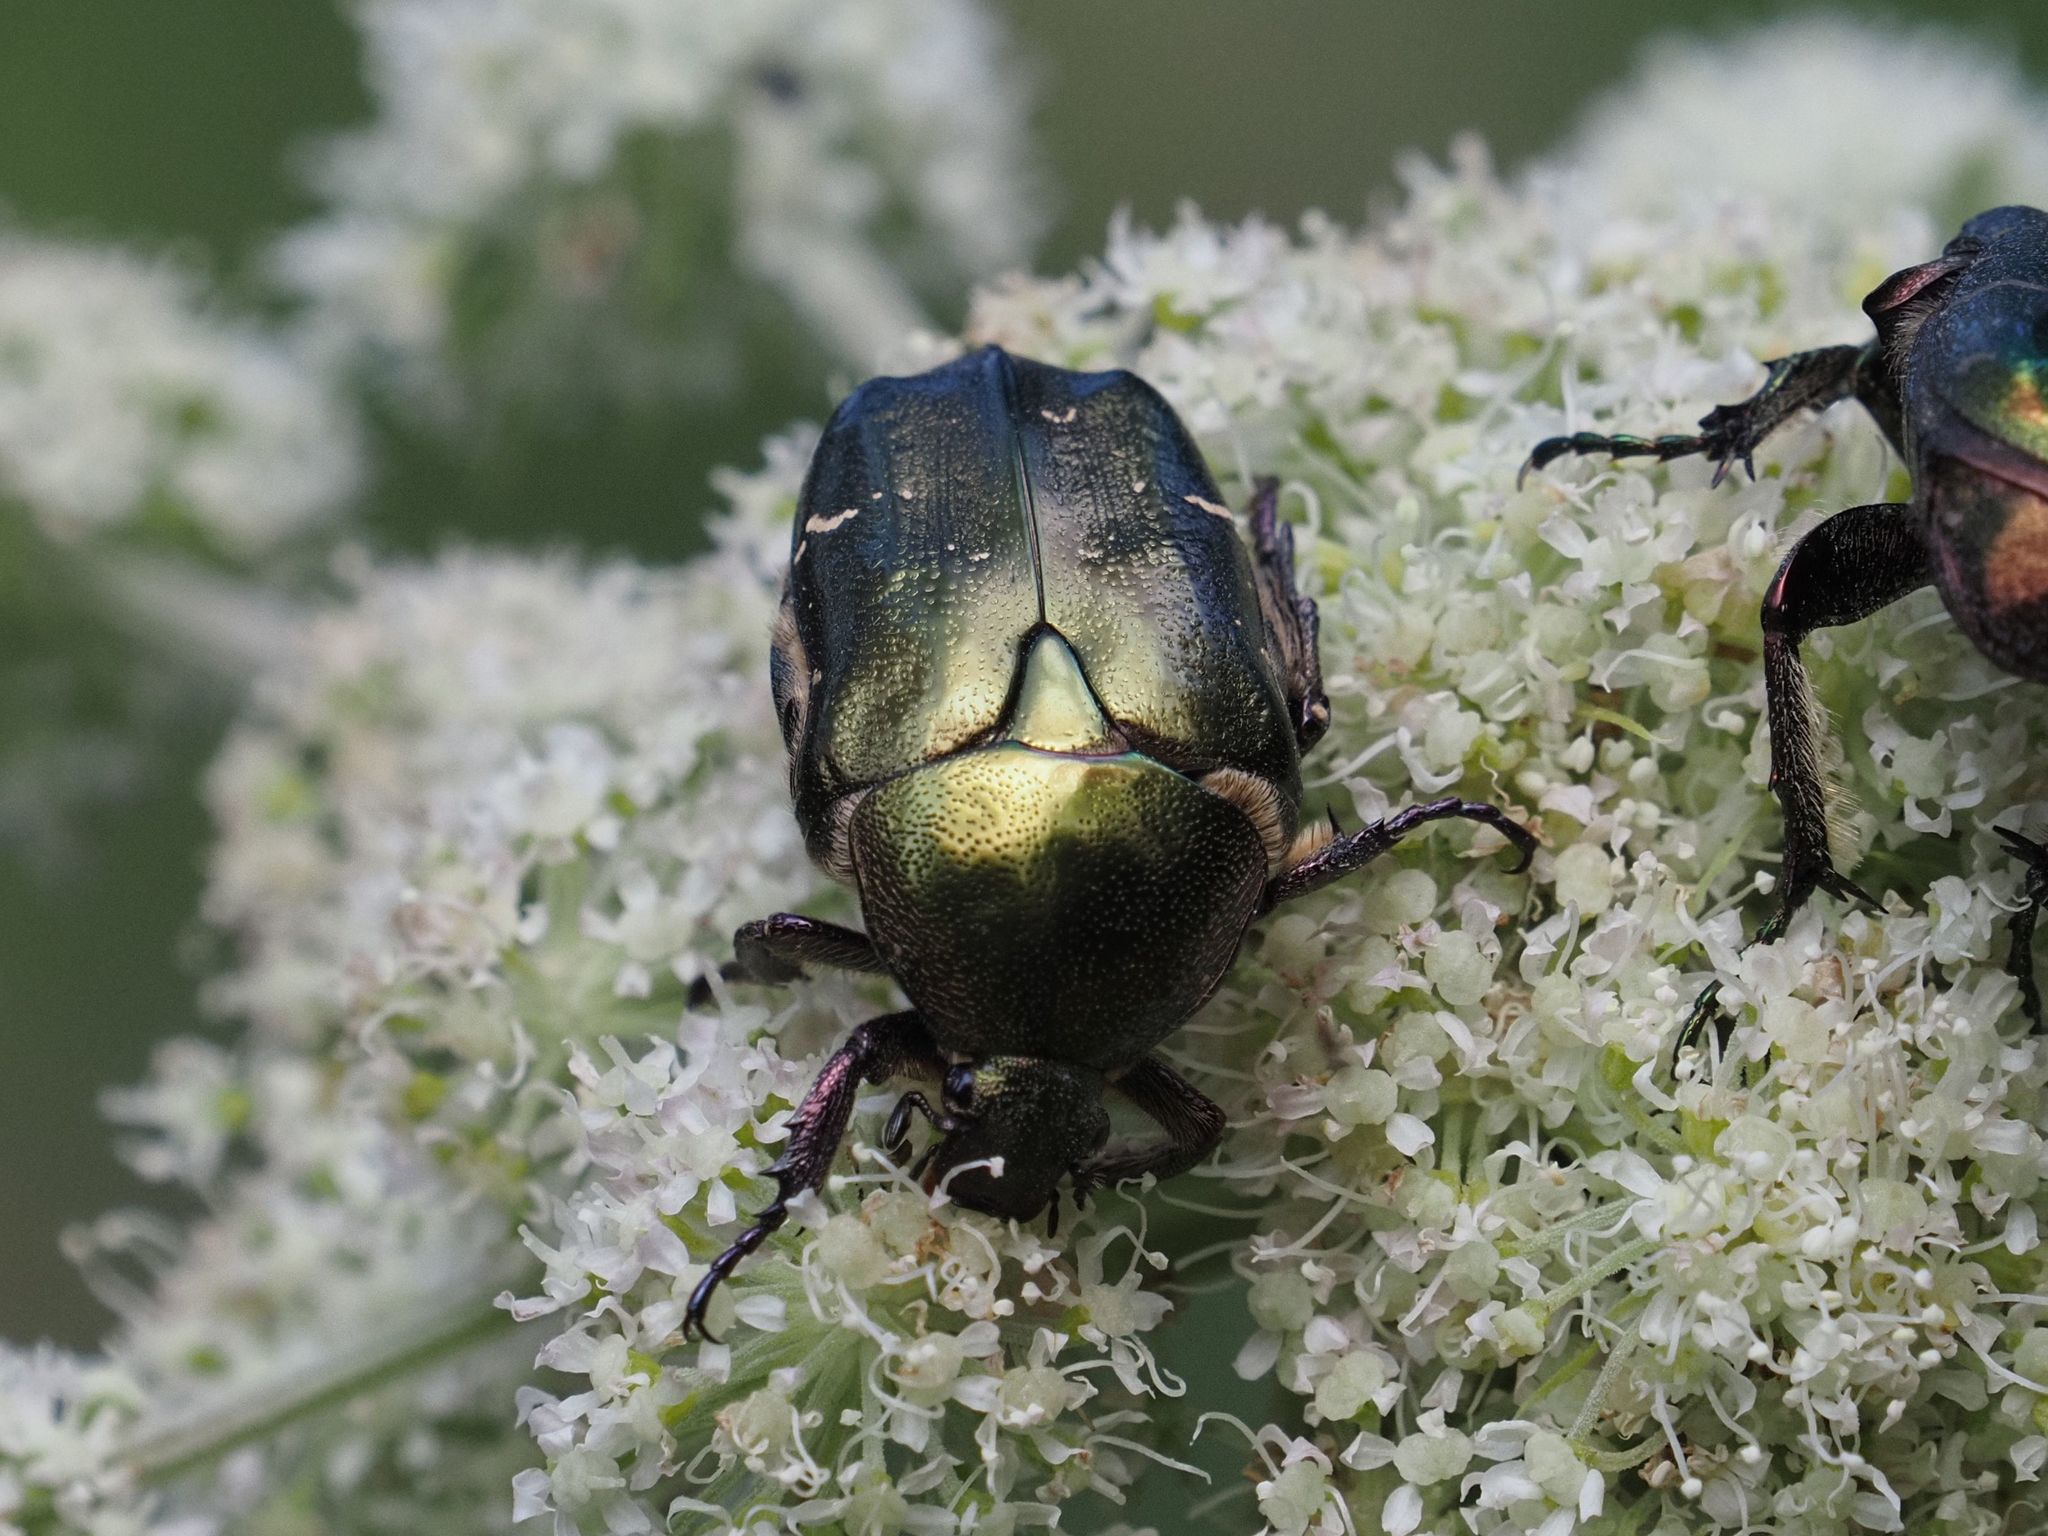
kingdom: Animalia
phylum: Arthropoda
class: Insecta
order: Coleoptera
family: Scarabaeidae
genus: Protaetia
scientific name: Protaetia cuprea
